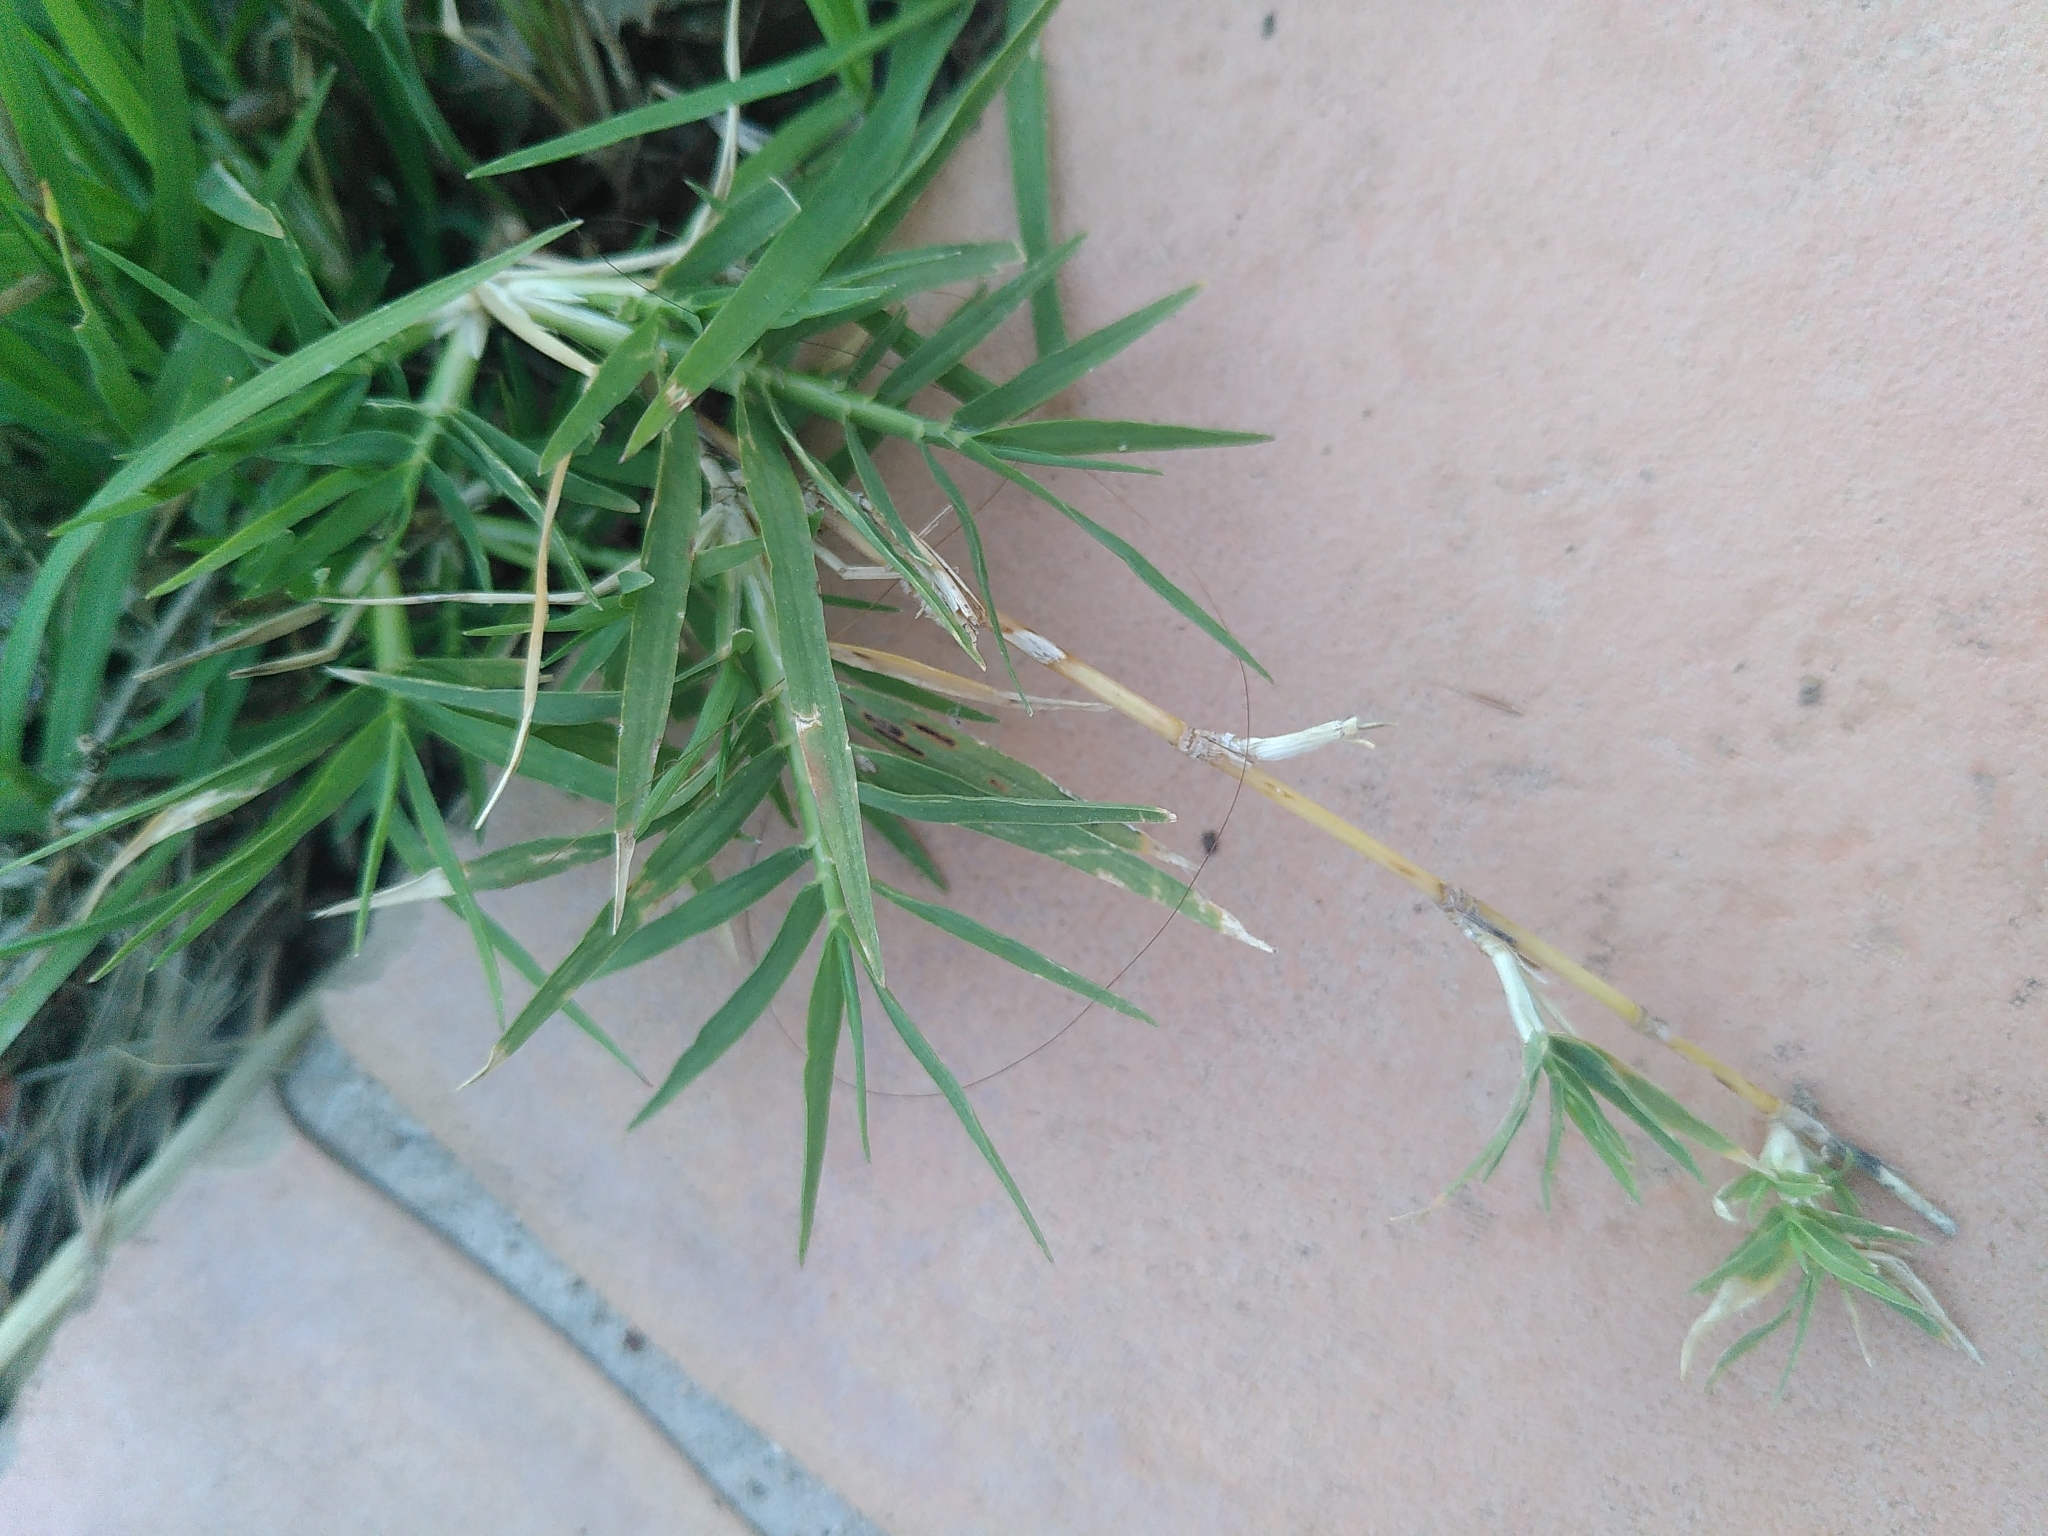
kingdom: Plantae
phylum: Tracheophyta
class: Liliopsida
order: Poales
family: Poaceae
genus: Cynodon
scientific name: Cynodon dactylon
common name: Bermuda grass
